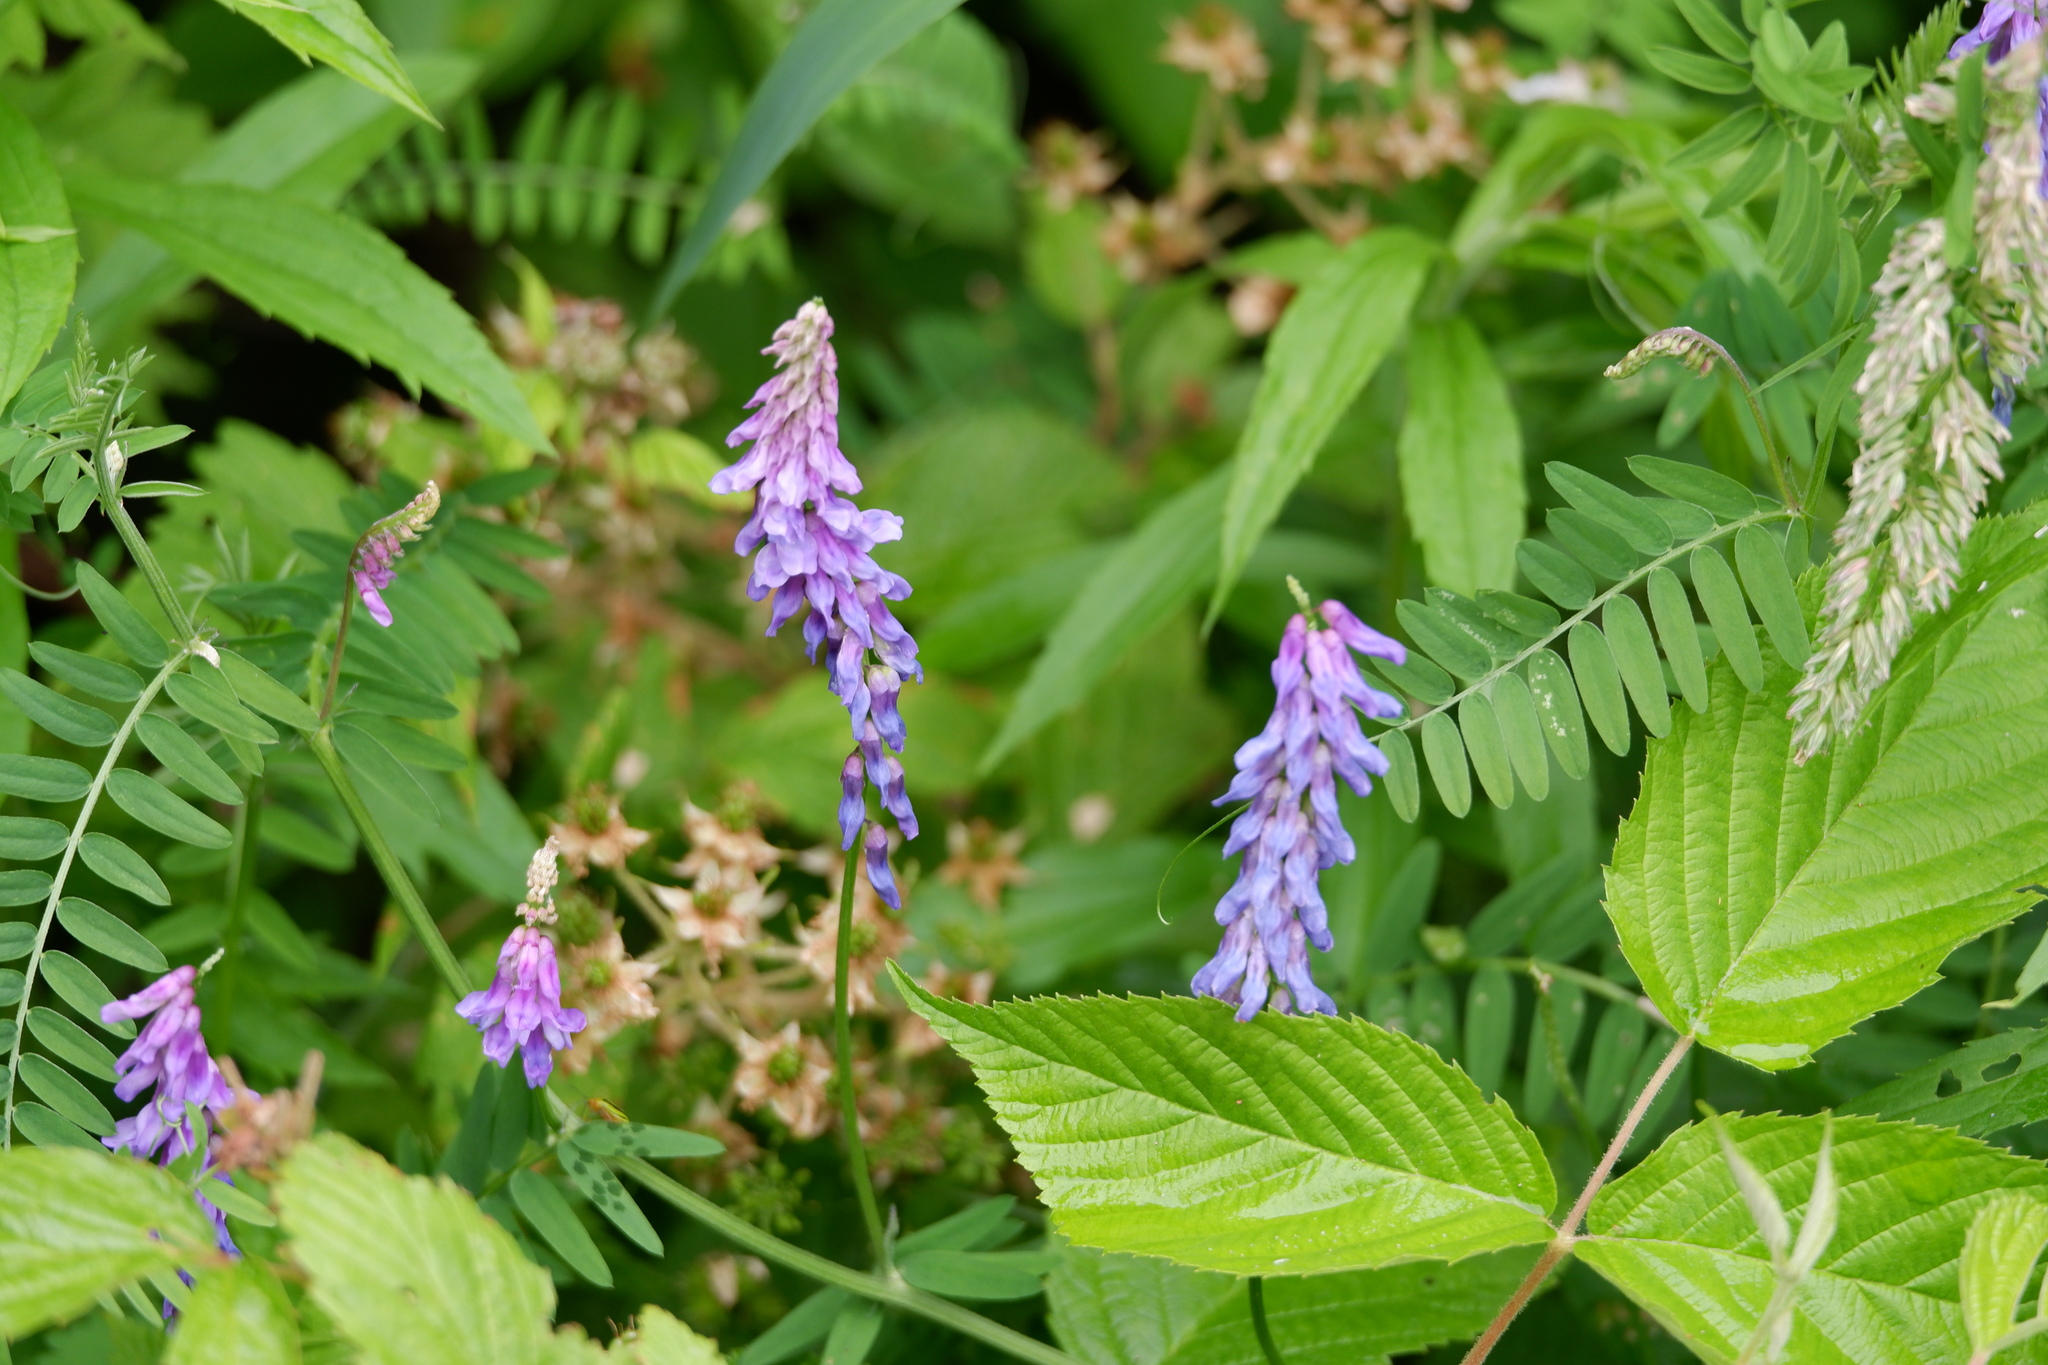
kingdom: Plantae
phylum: Tracheophyta
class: Magnoliopsida
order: Fabales
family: Fabaceae
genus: Vicia
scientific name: Vicia cracca
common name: Bird vetch
